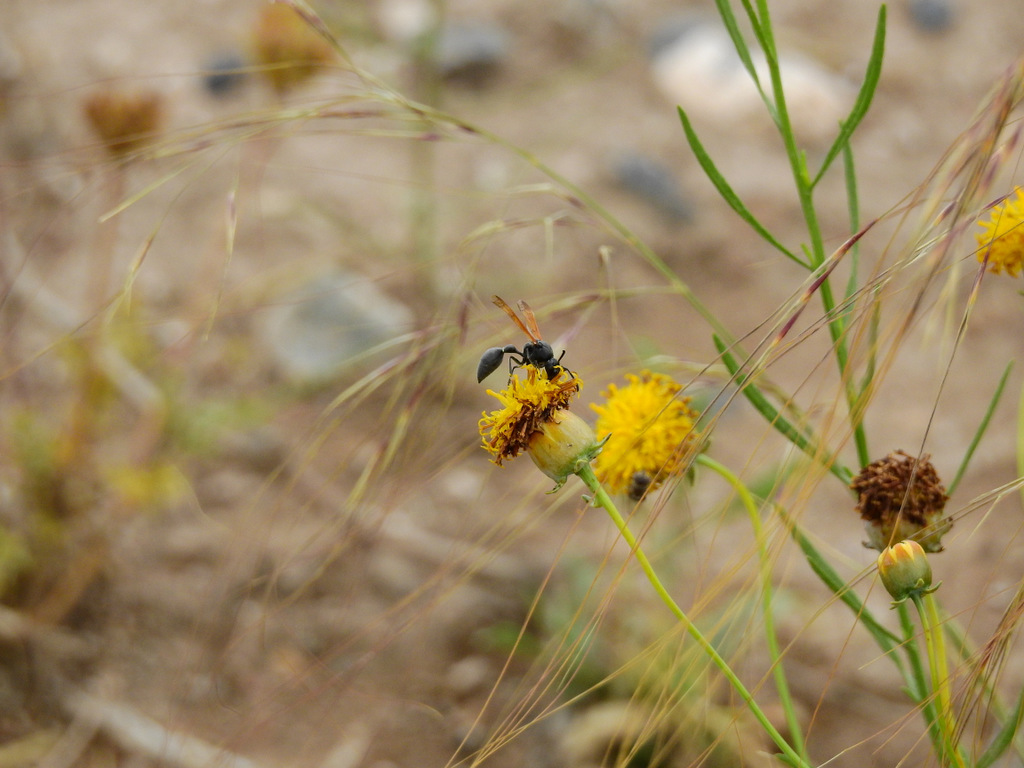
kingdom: Plantae
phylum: Tracheophyta
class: Magnoliopsida
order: Asterales
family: Asteraceae
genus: Thelesperma
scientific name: Thelesperma megapotamicum
